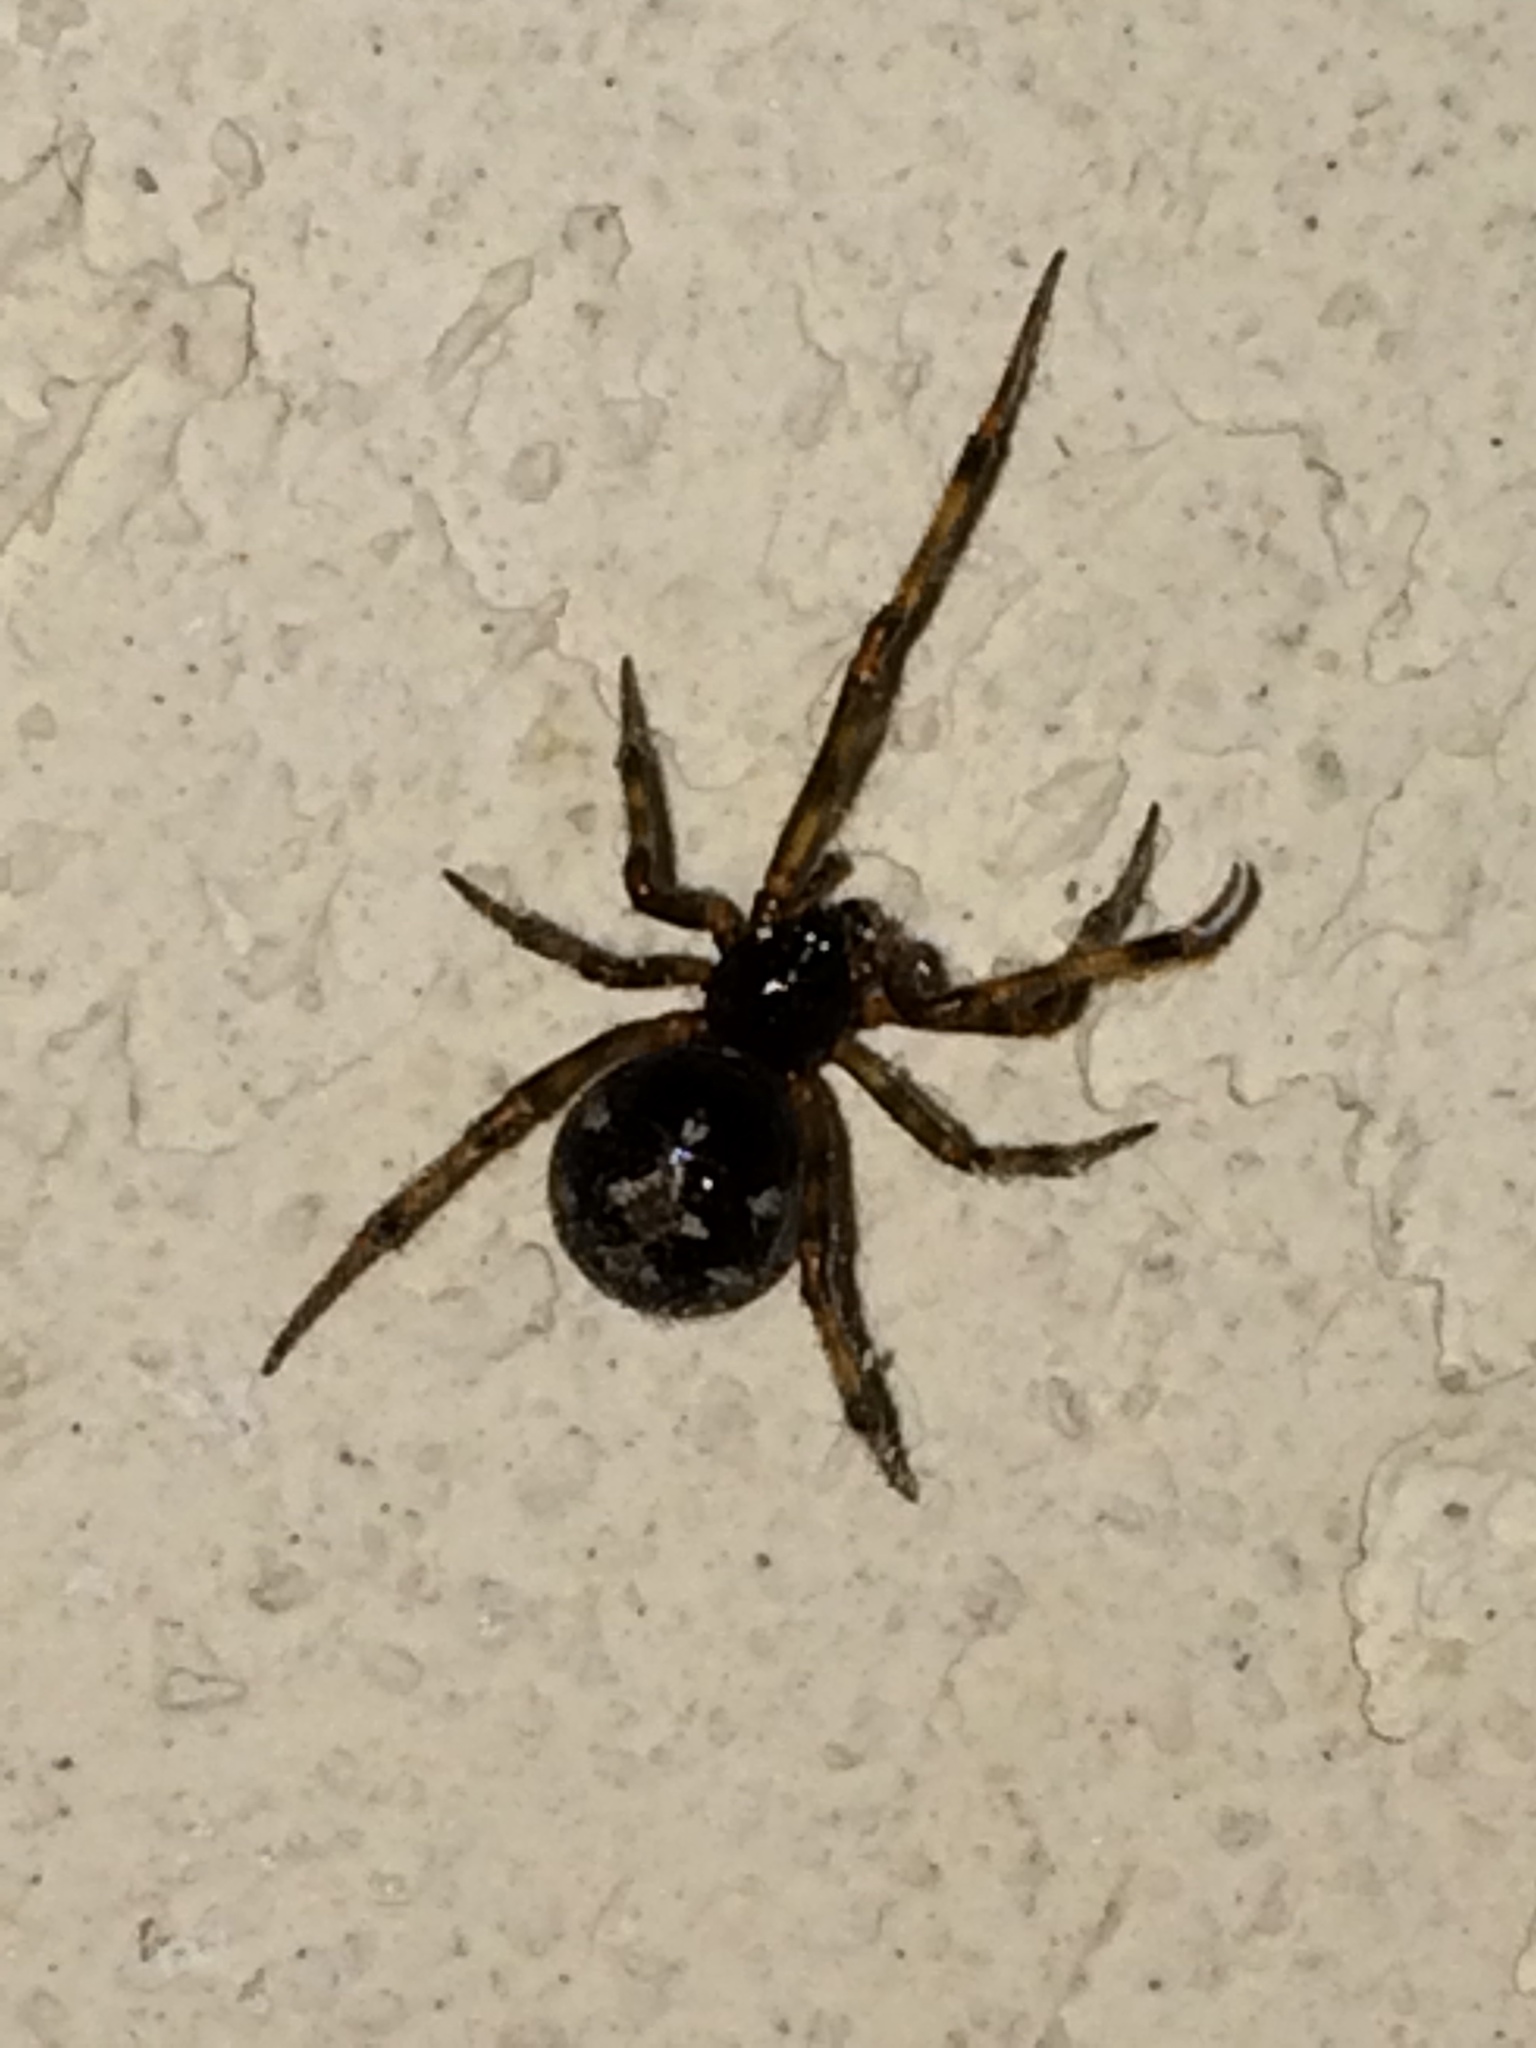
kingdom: Animalia
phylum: Arthropoda
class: Arachnida
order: Araneae
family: Theridiidae
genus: Steatoda
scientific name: Steatoda triangulosa
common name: Triangulate bud spider
